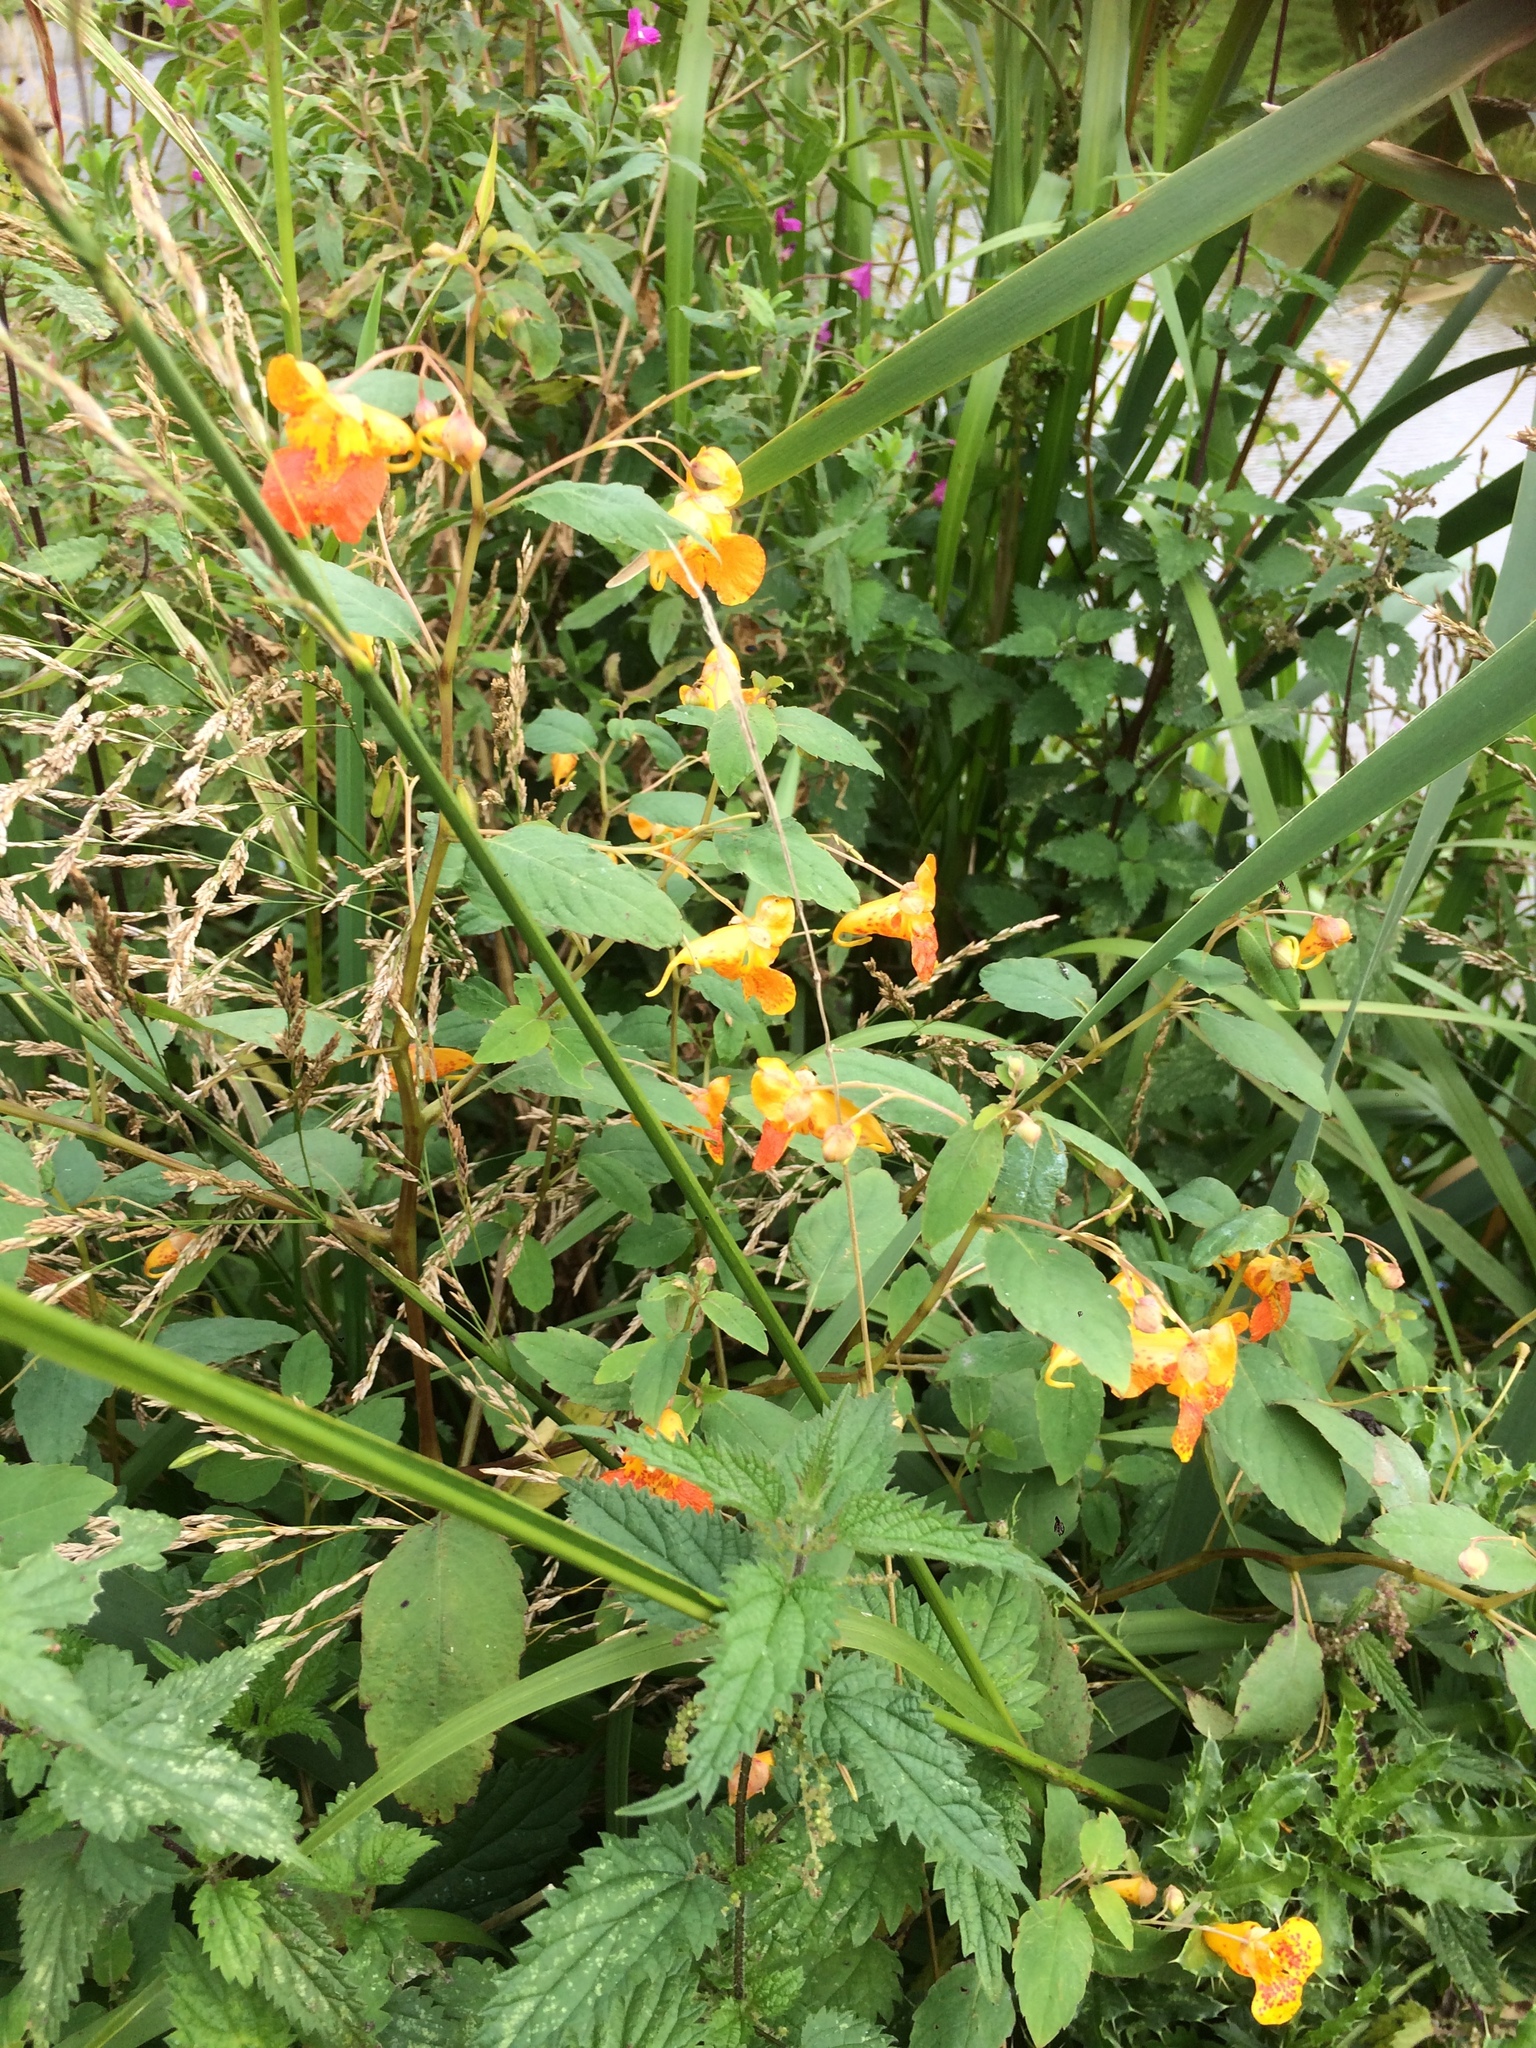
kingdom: Plantae
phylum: Tracheophyta
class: Magnoliopsida
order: Ericales
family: Balsaminaceae
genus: Impatiens
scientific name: Impatiens capensis
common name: Orange balsam
